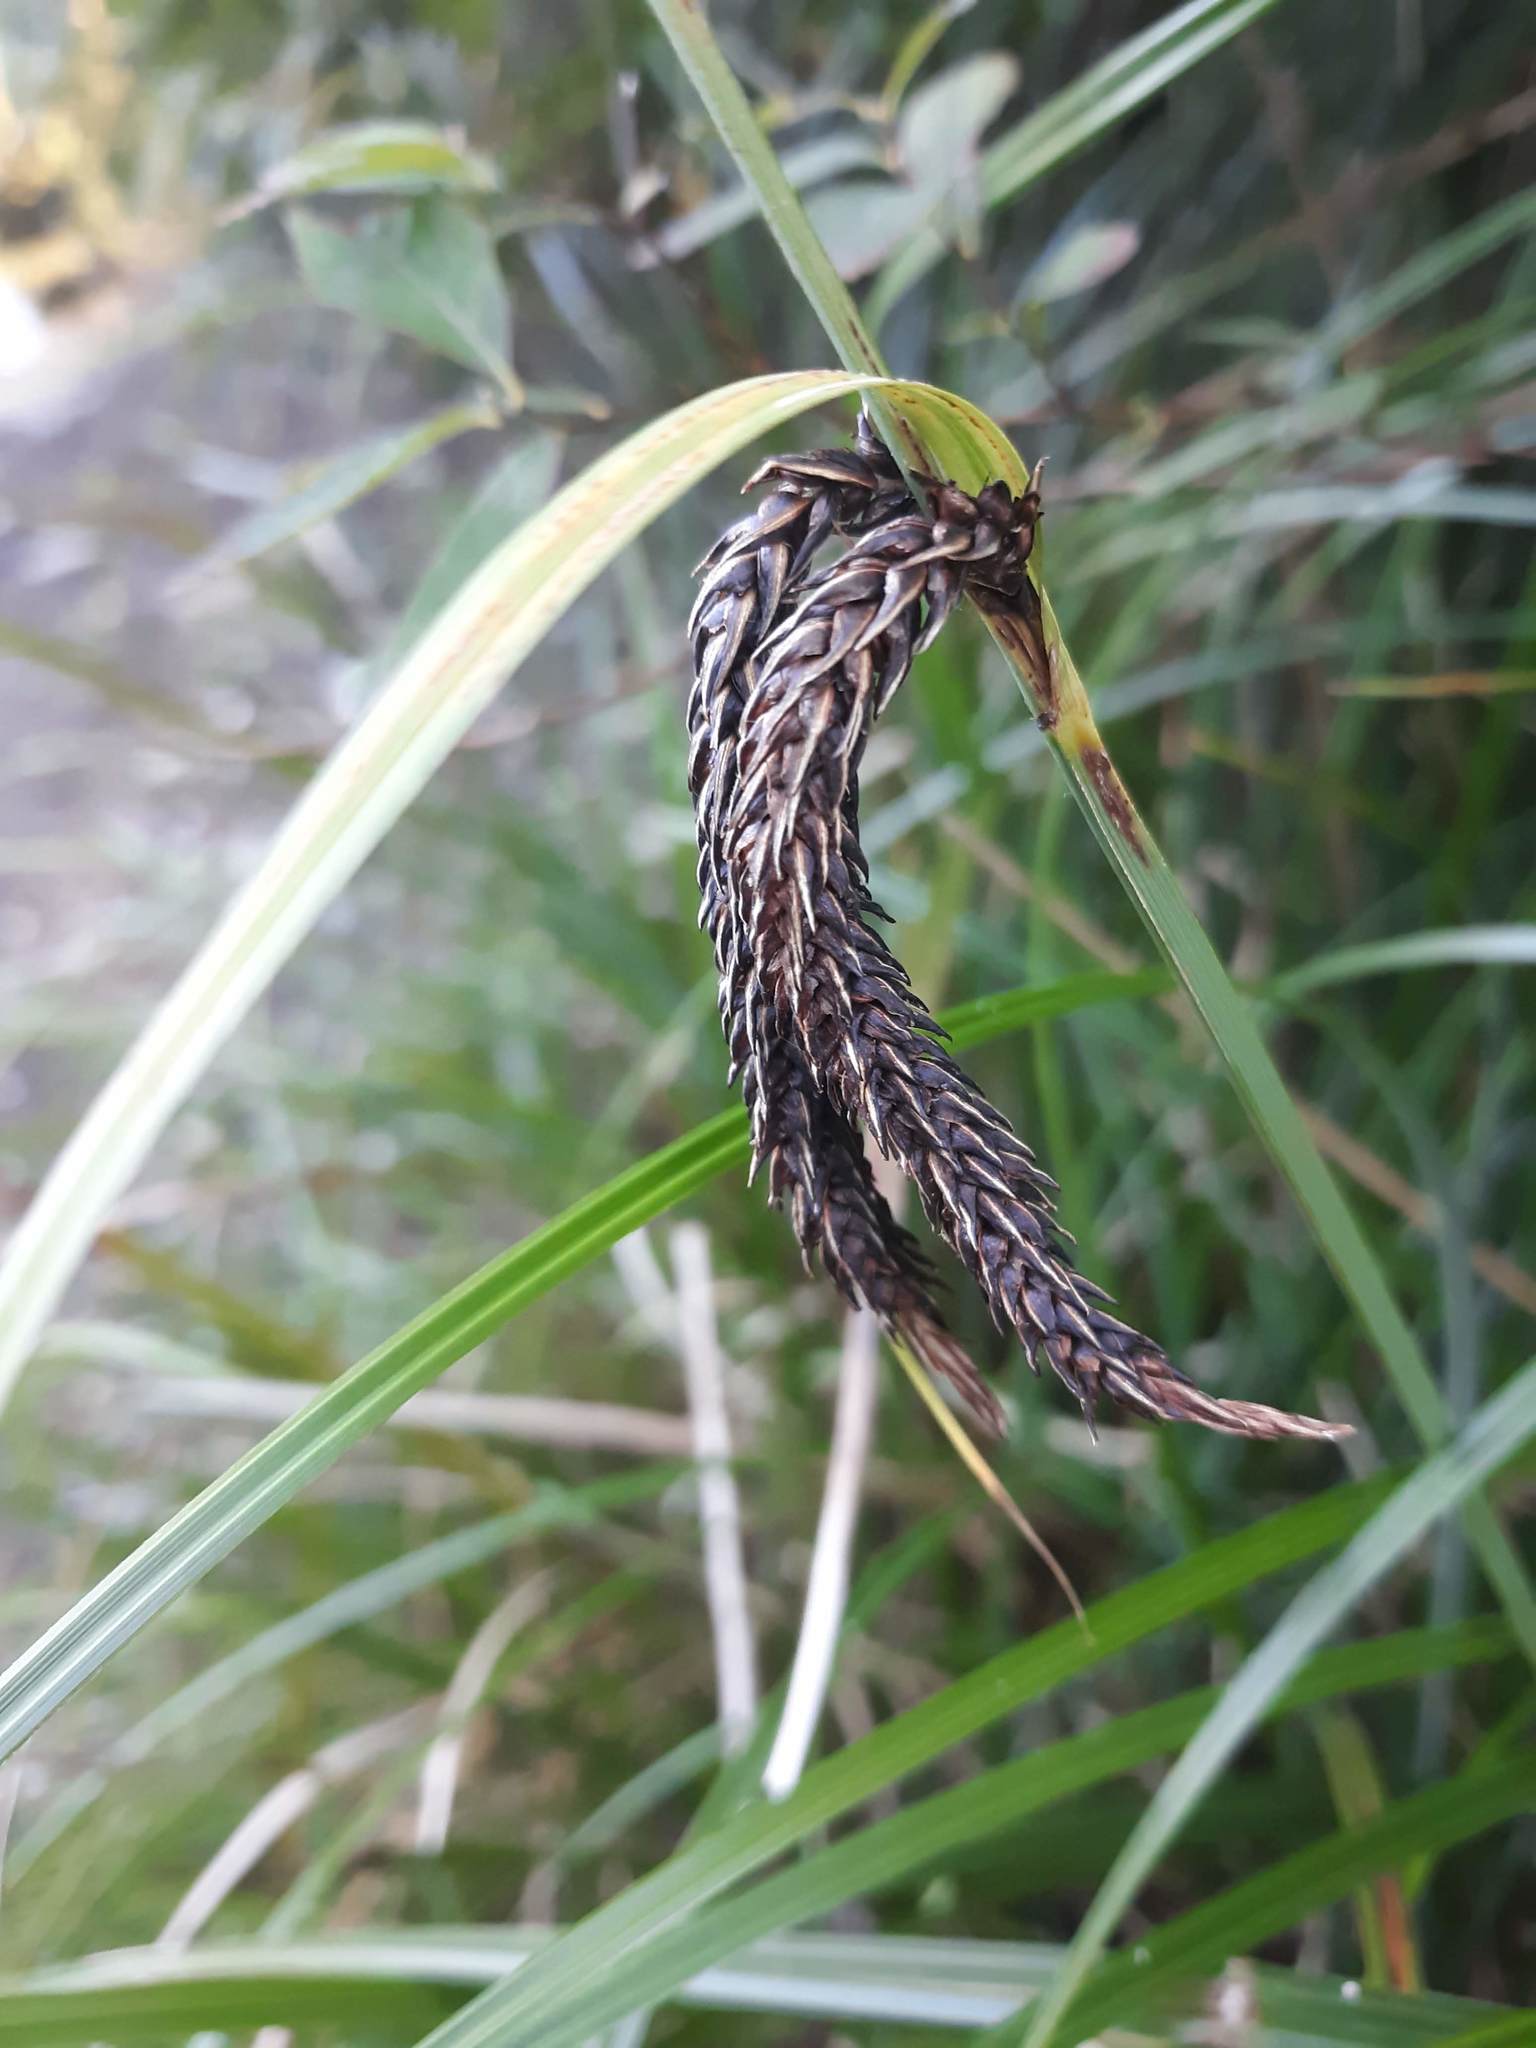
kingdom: Plantae
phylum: Tracheophyta
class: Liliopsida
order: Poales
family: Cyperaceae
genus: Carex
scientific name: Carex obnupta
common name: Slough sedge
